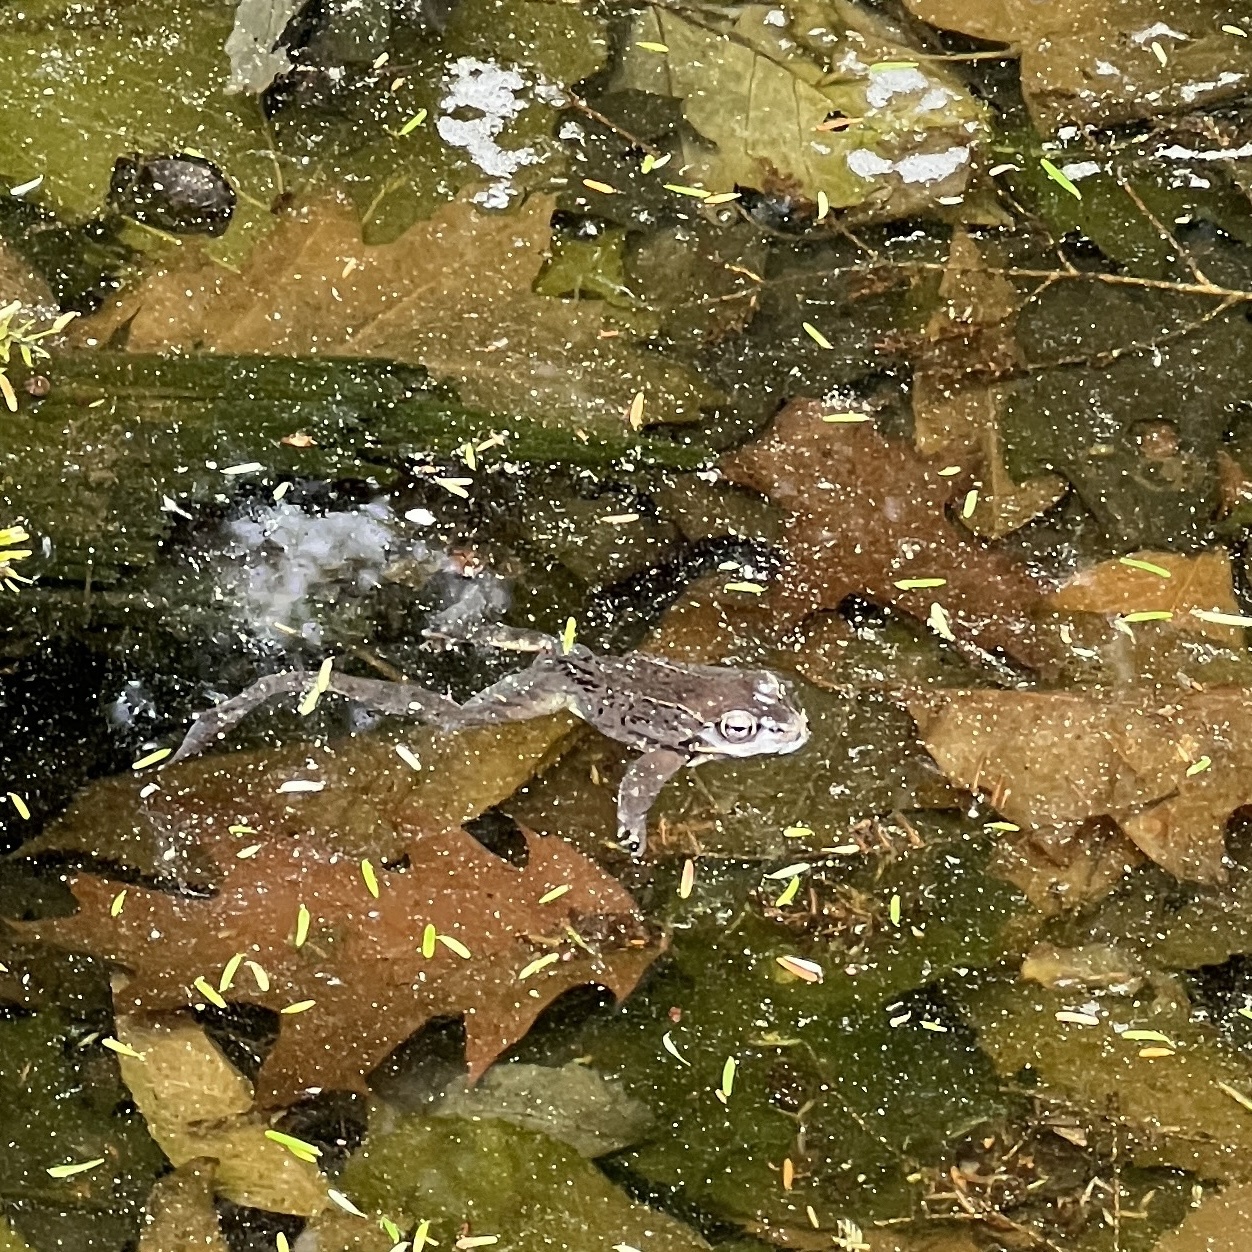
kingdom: Animalia
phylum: Chordata
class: Amphibia
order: Anura
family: Ranidae
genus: Lithobates
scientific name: Lithobates sylvaticus
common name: Wood frog
